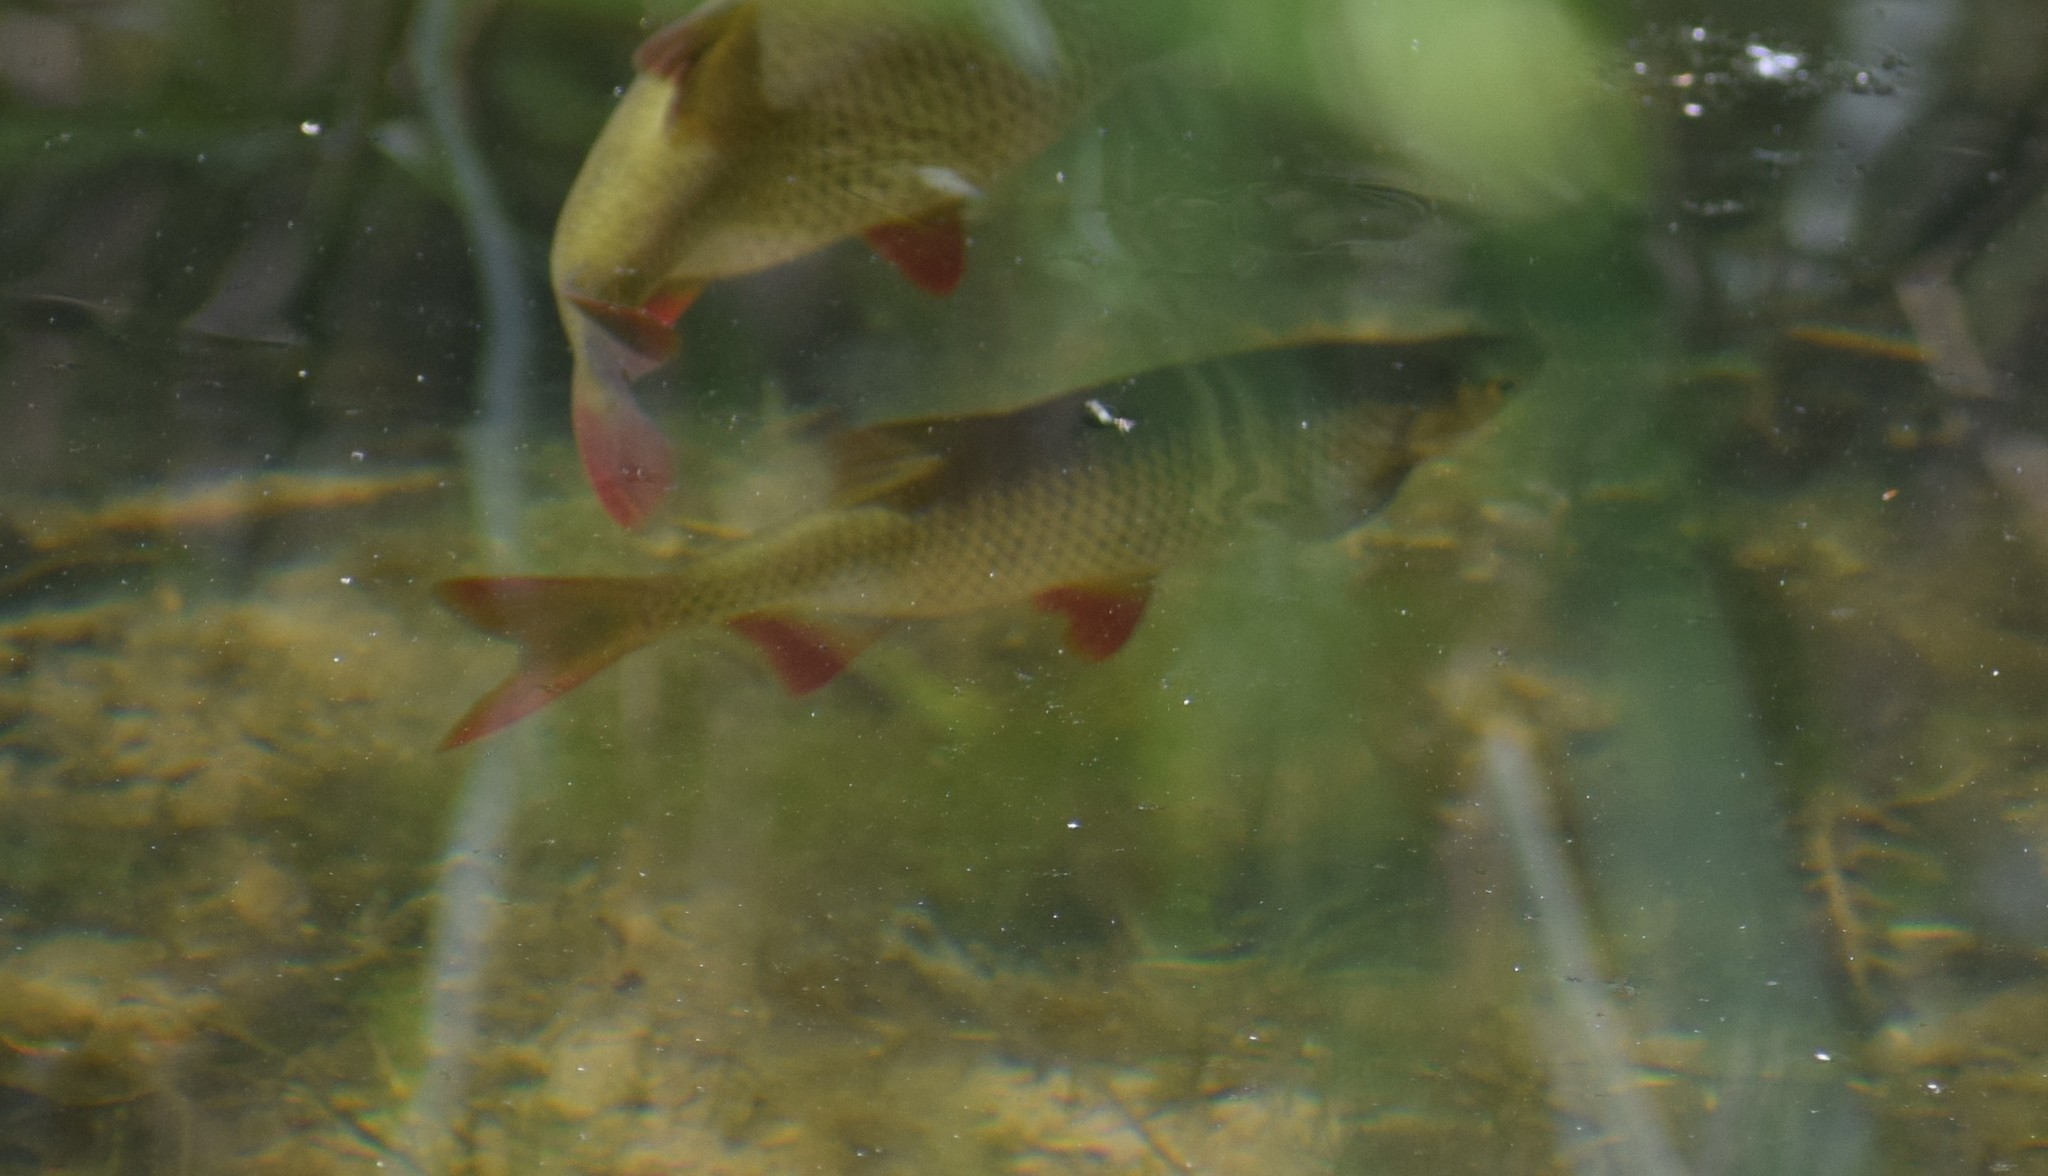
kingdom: Animalia
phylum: Chordata
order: Cypriniformes
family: Cyprinidae
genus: Scardinius
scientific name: Scardinius erythrophthalmus
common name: Rudd
